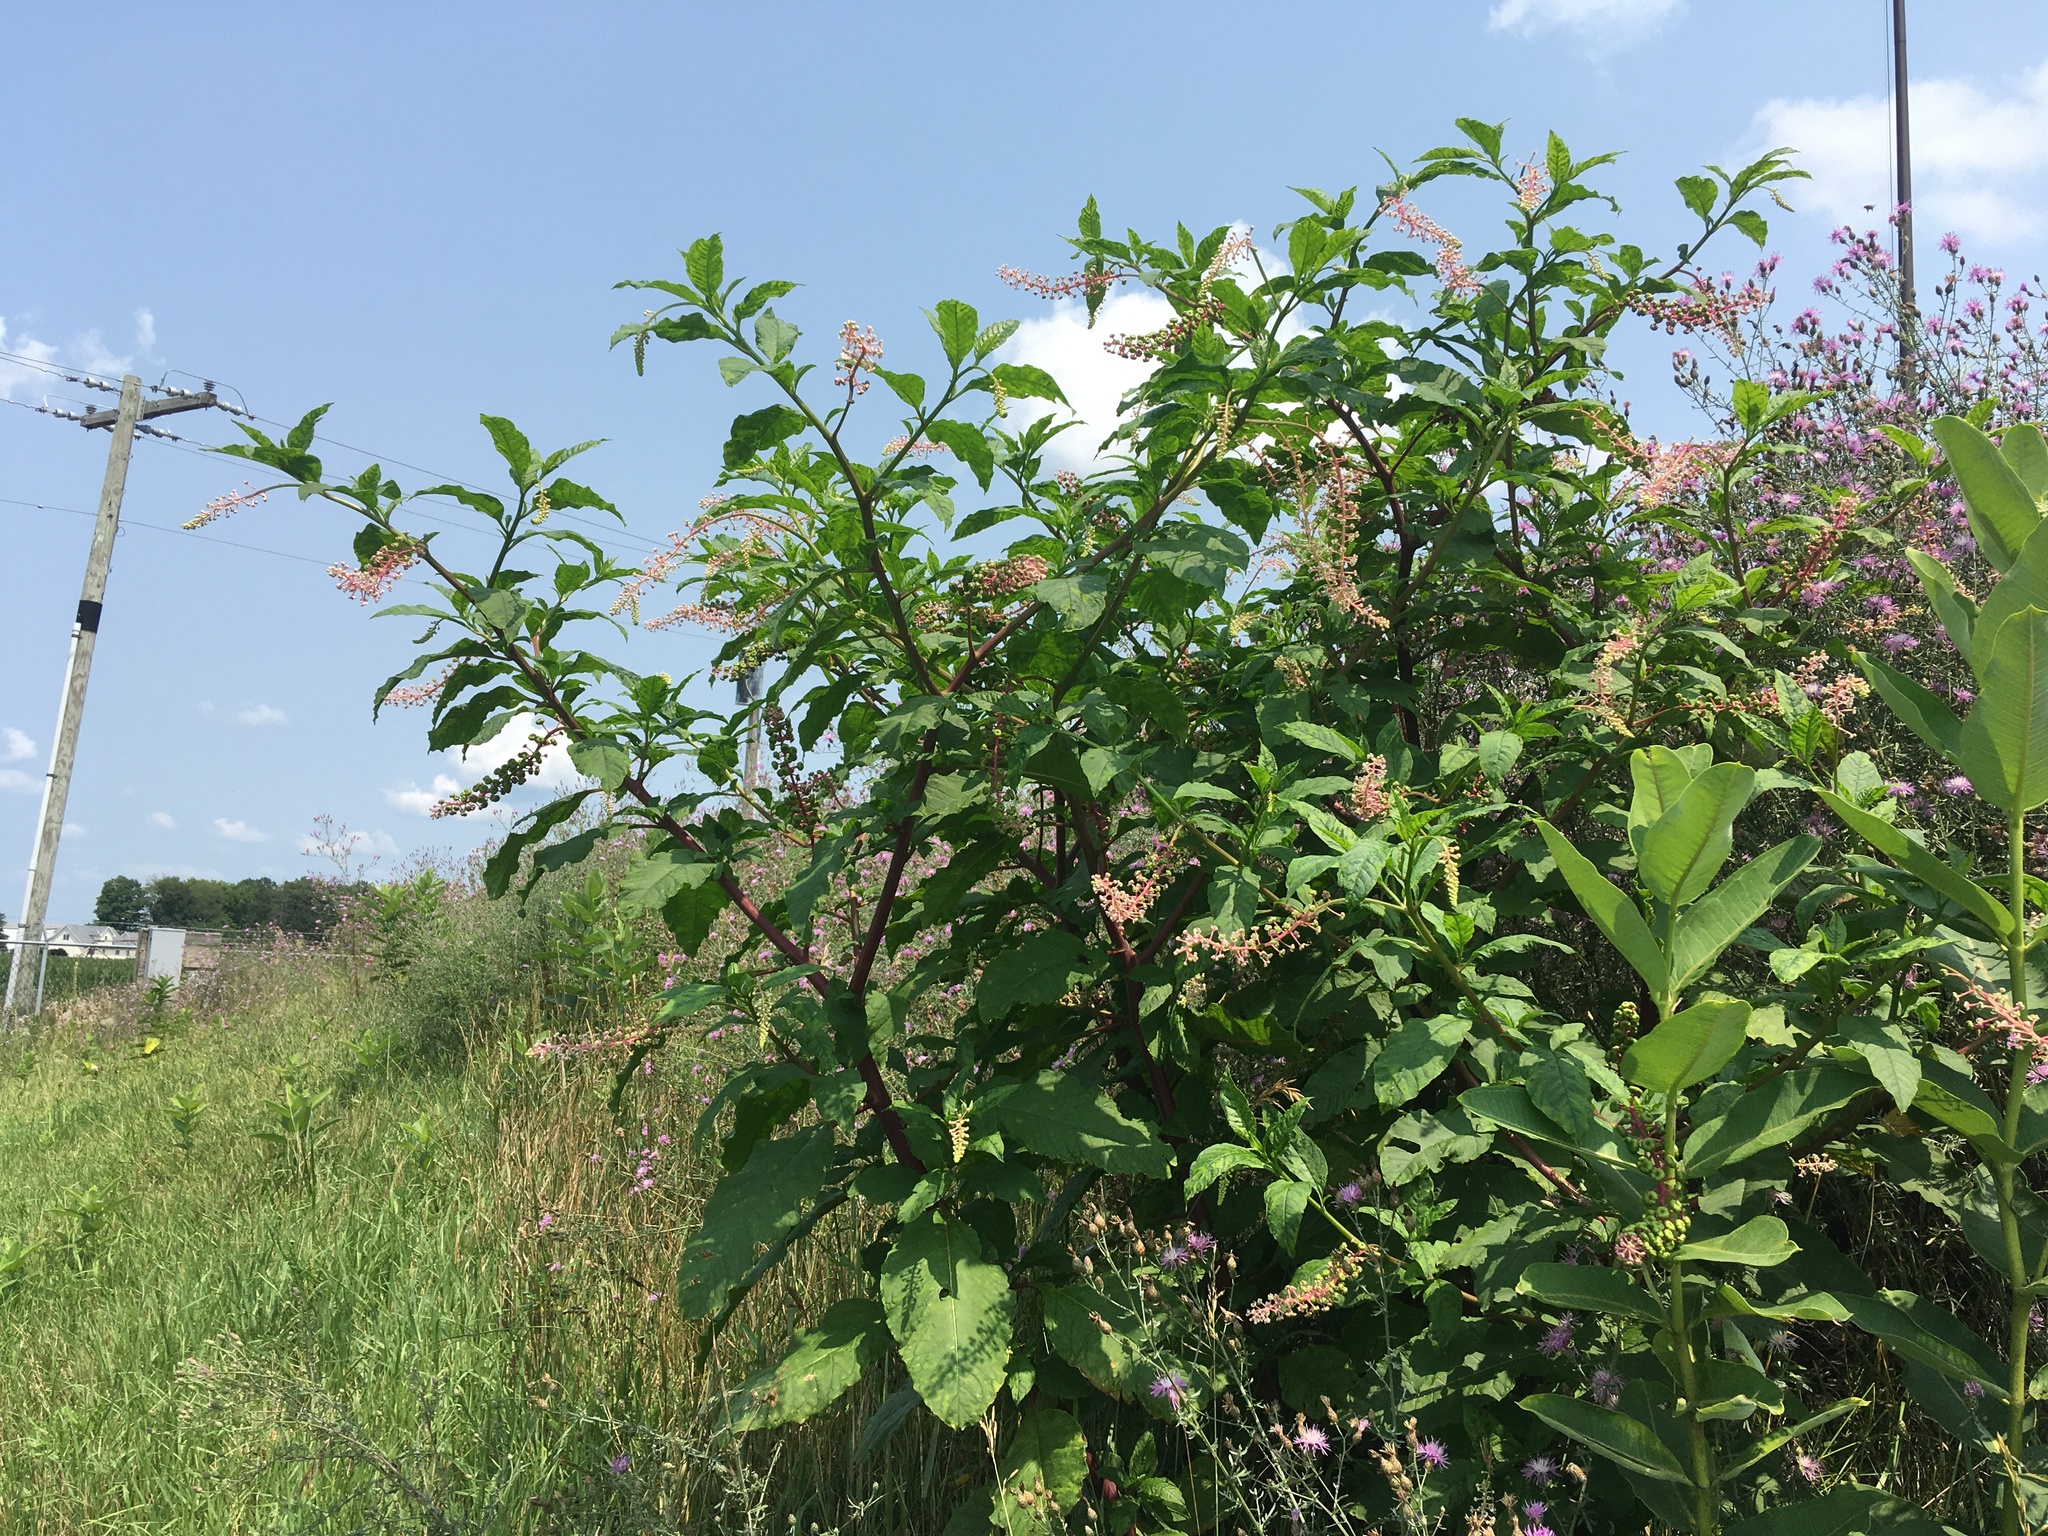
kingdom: Plantae
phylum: Tracheophyta
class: Magnoliopsida
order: Caryophyllales
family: Phytolaccaceae
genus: Phytolacca
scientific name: Phytolacca americana
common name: American pokeweed
